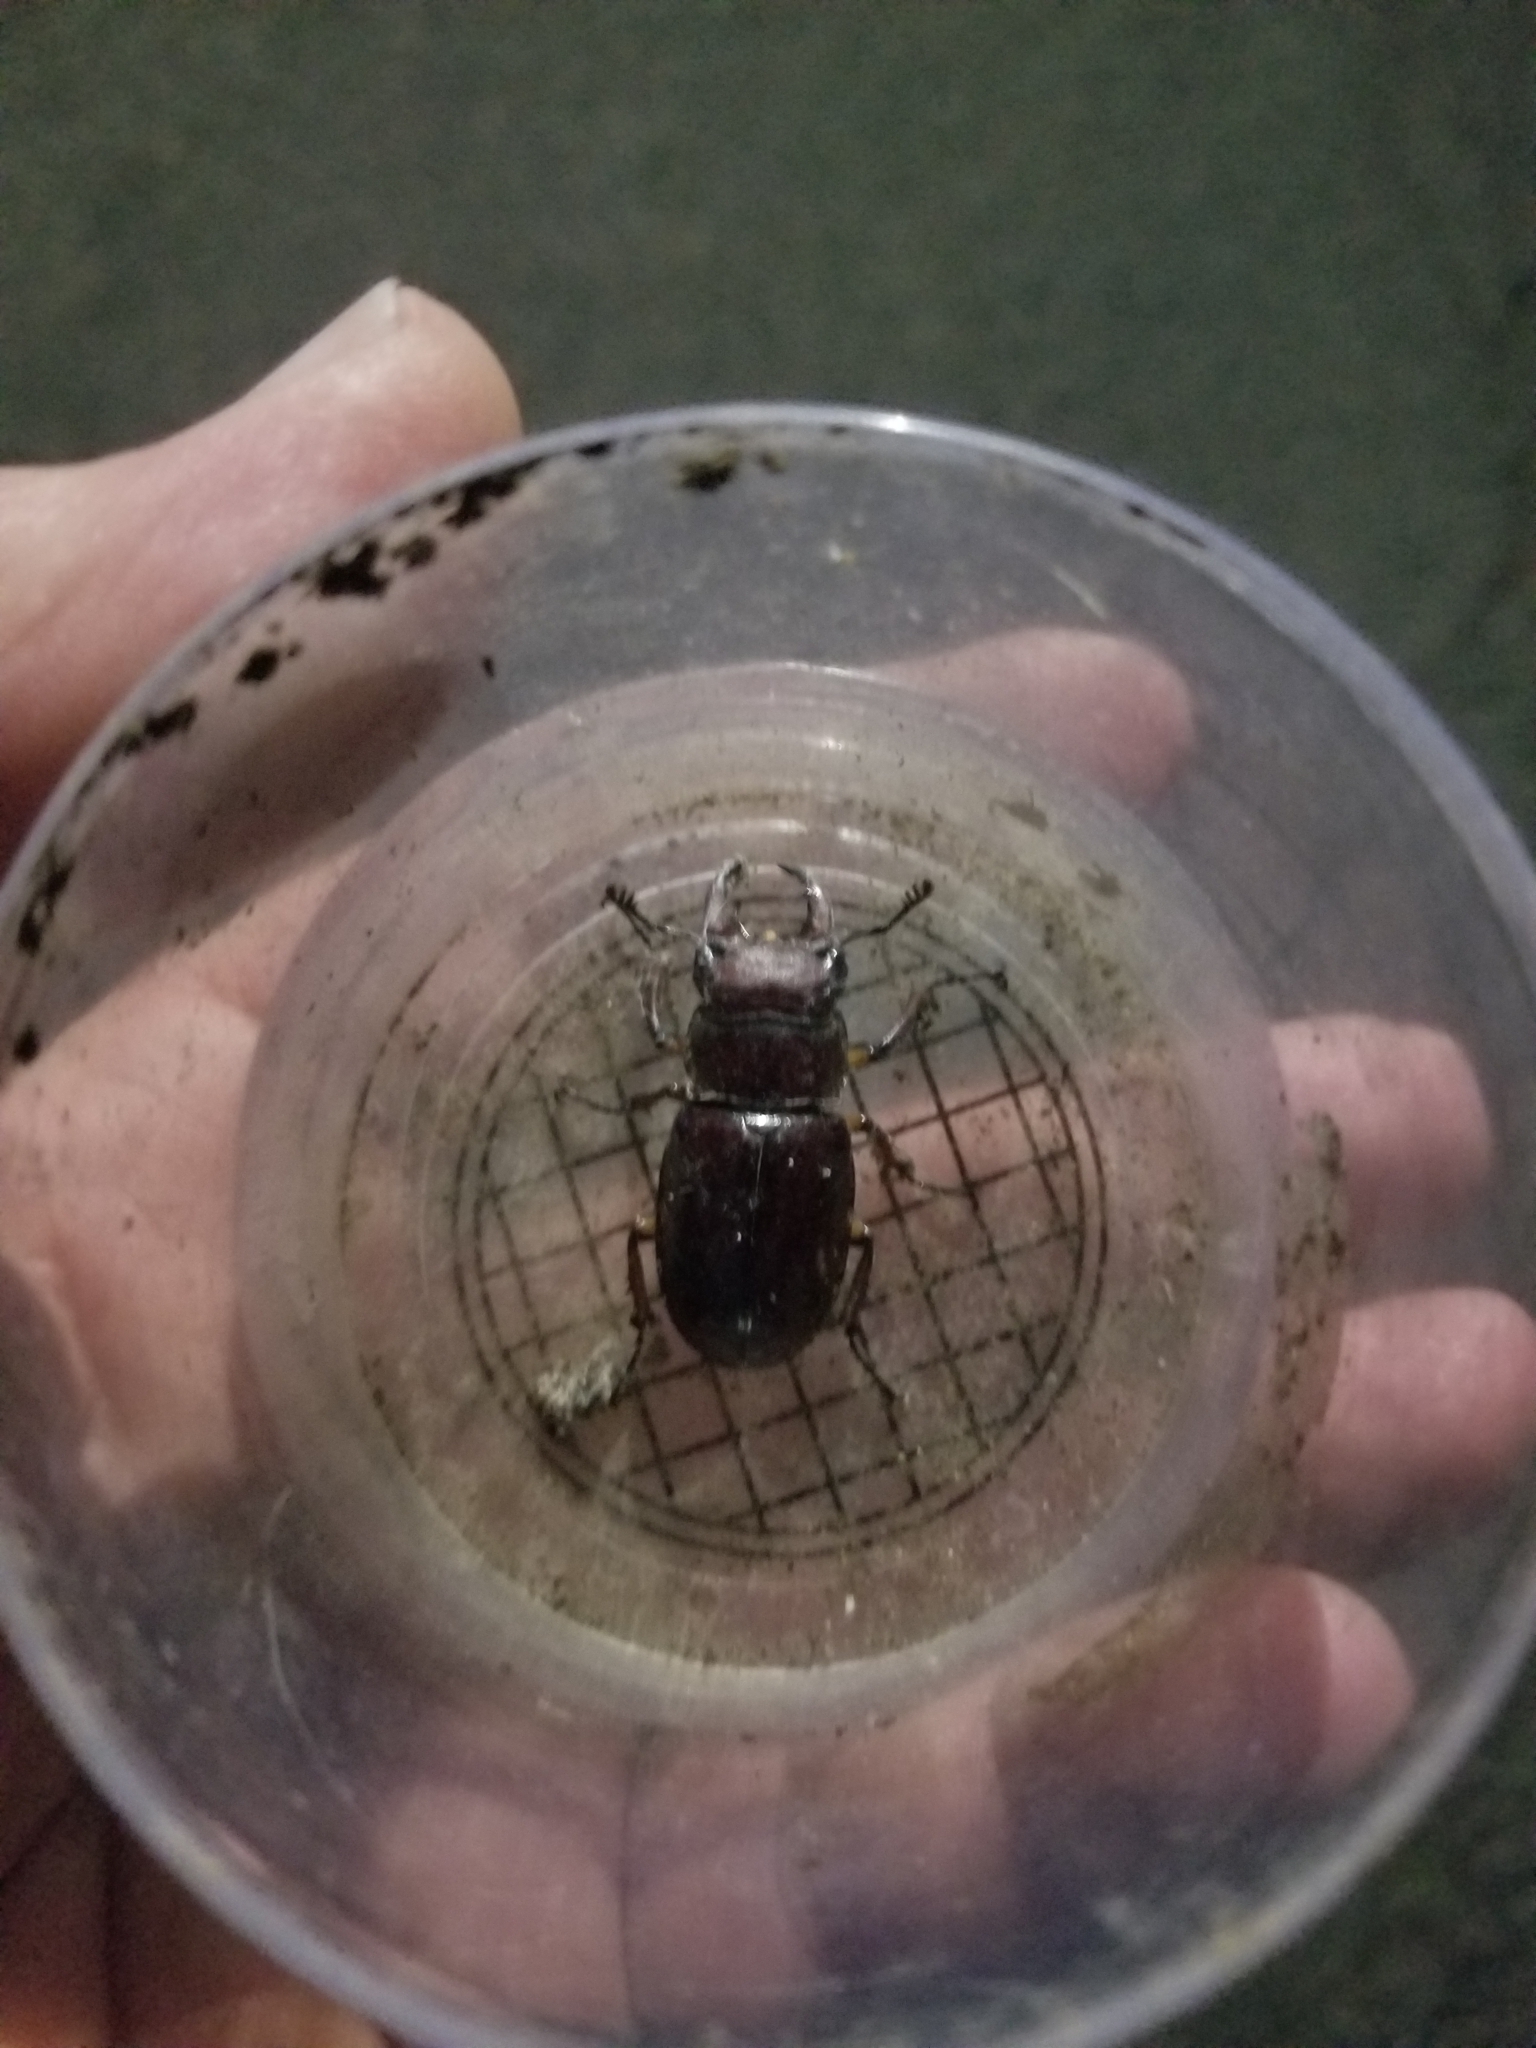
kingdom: Animalia
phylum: Arthropoda
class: Insecta
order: Coleoptera
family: Lucanidae
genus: Lucanus
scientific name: Lucanus capreolus
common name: Stag beetle
